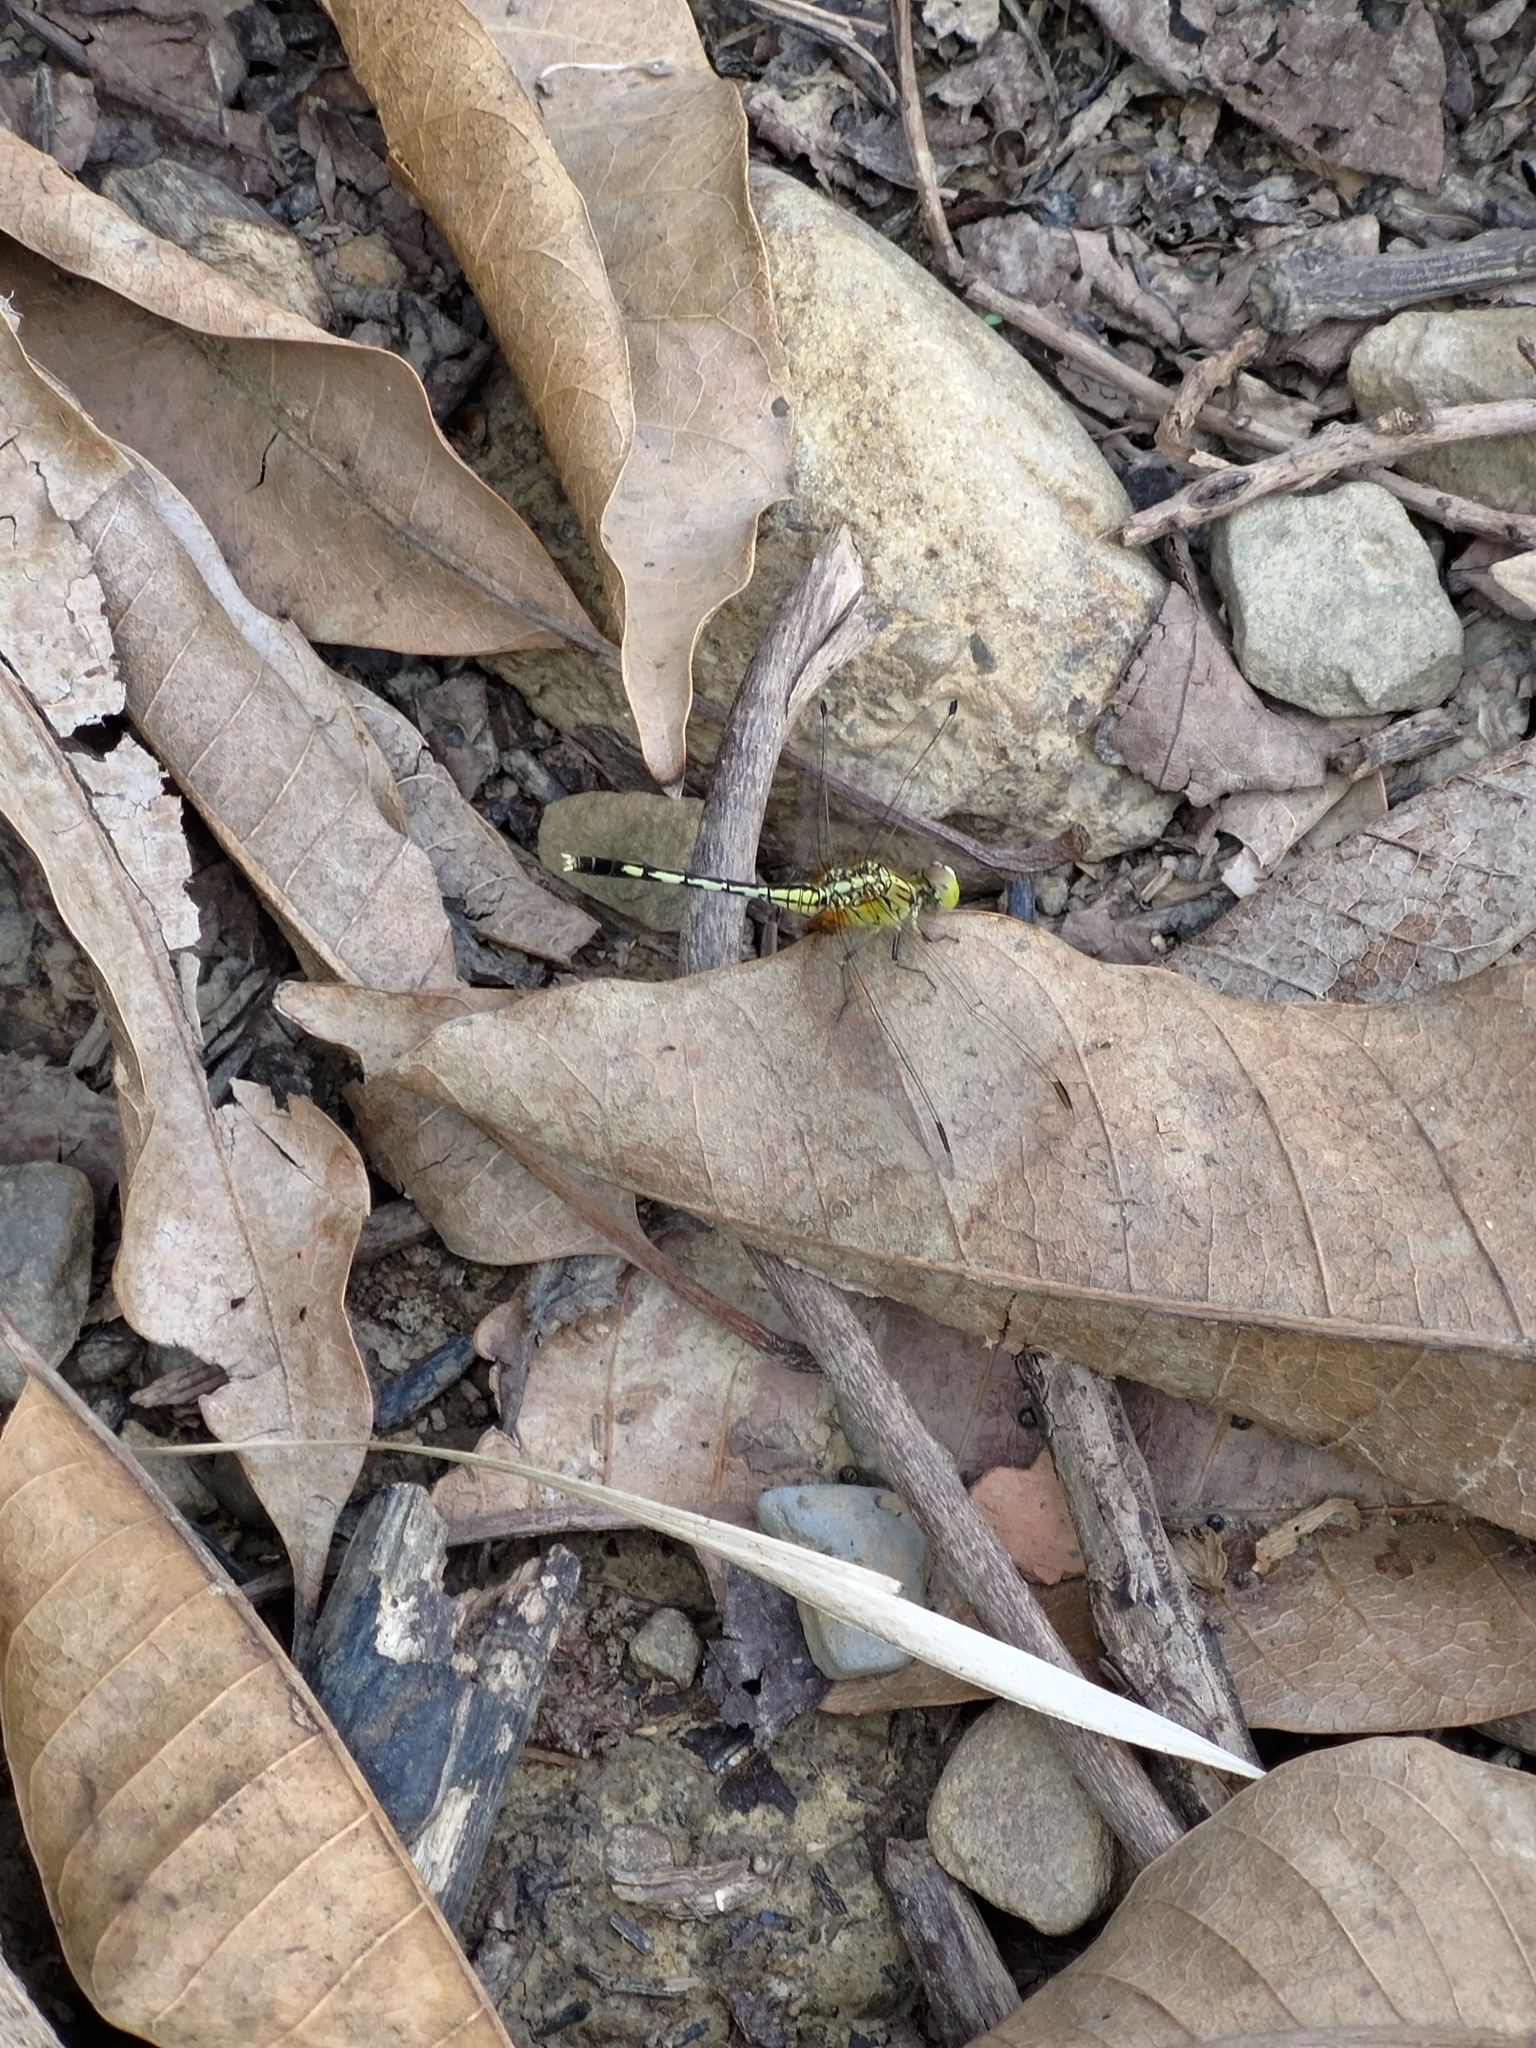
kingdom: Animalia
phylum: Arthropoda
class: Insecta
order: Odonata
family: Libellulidae
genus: Diplacodes
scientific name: Diplacodes trivialis
